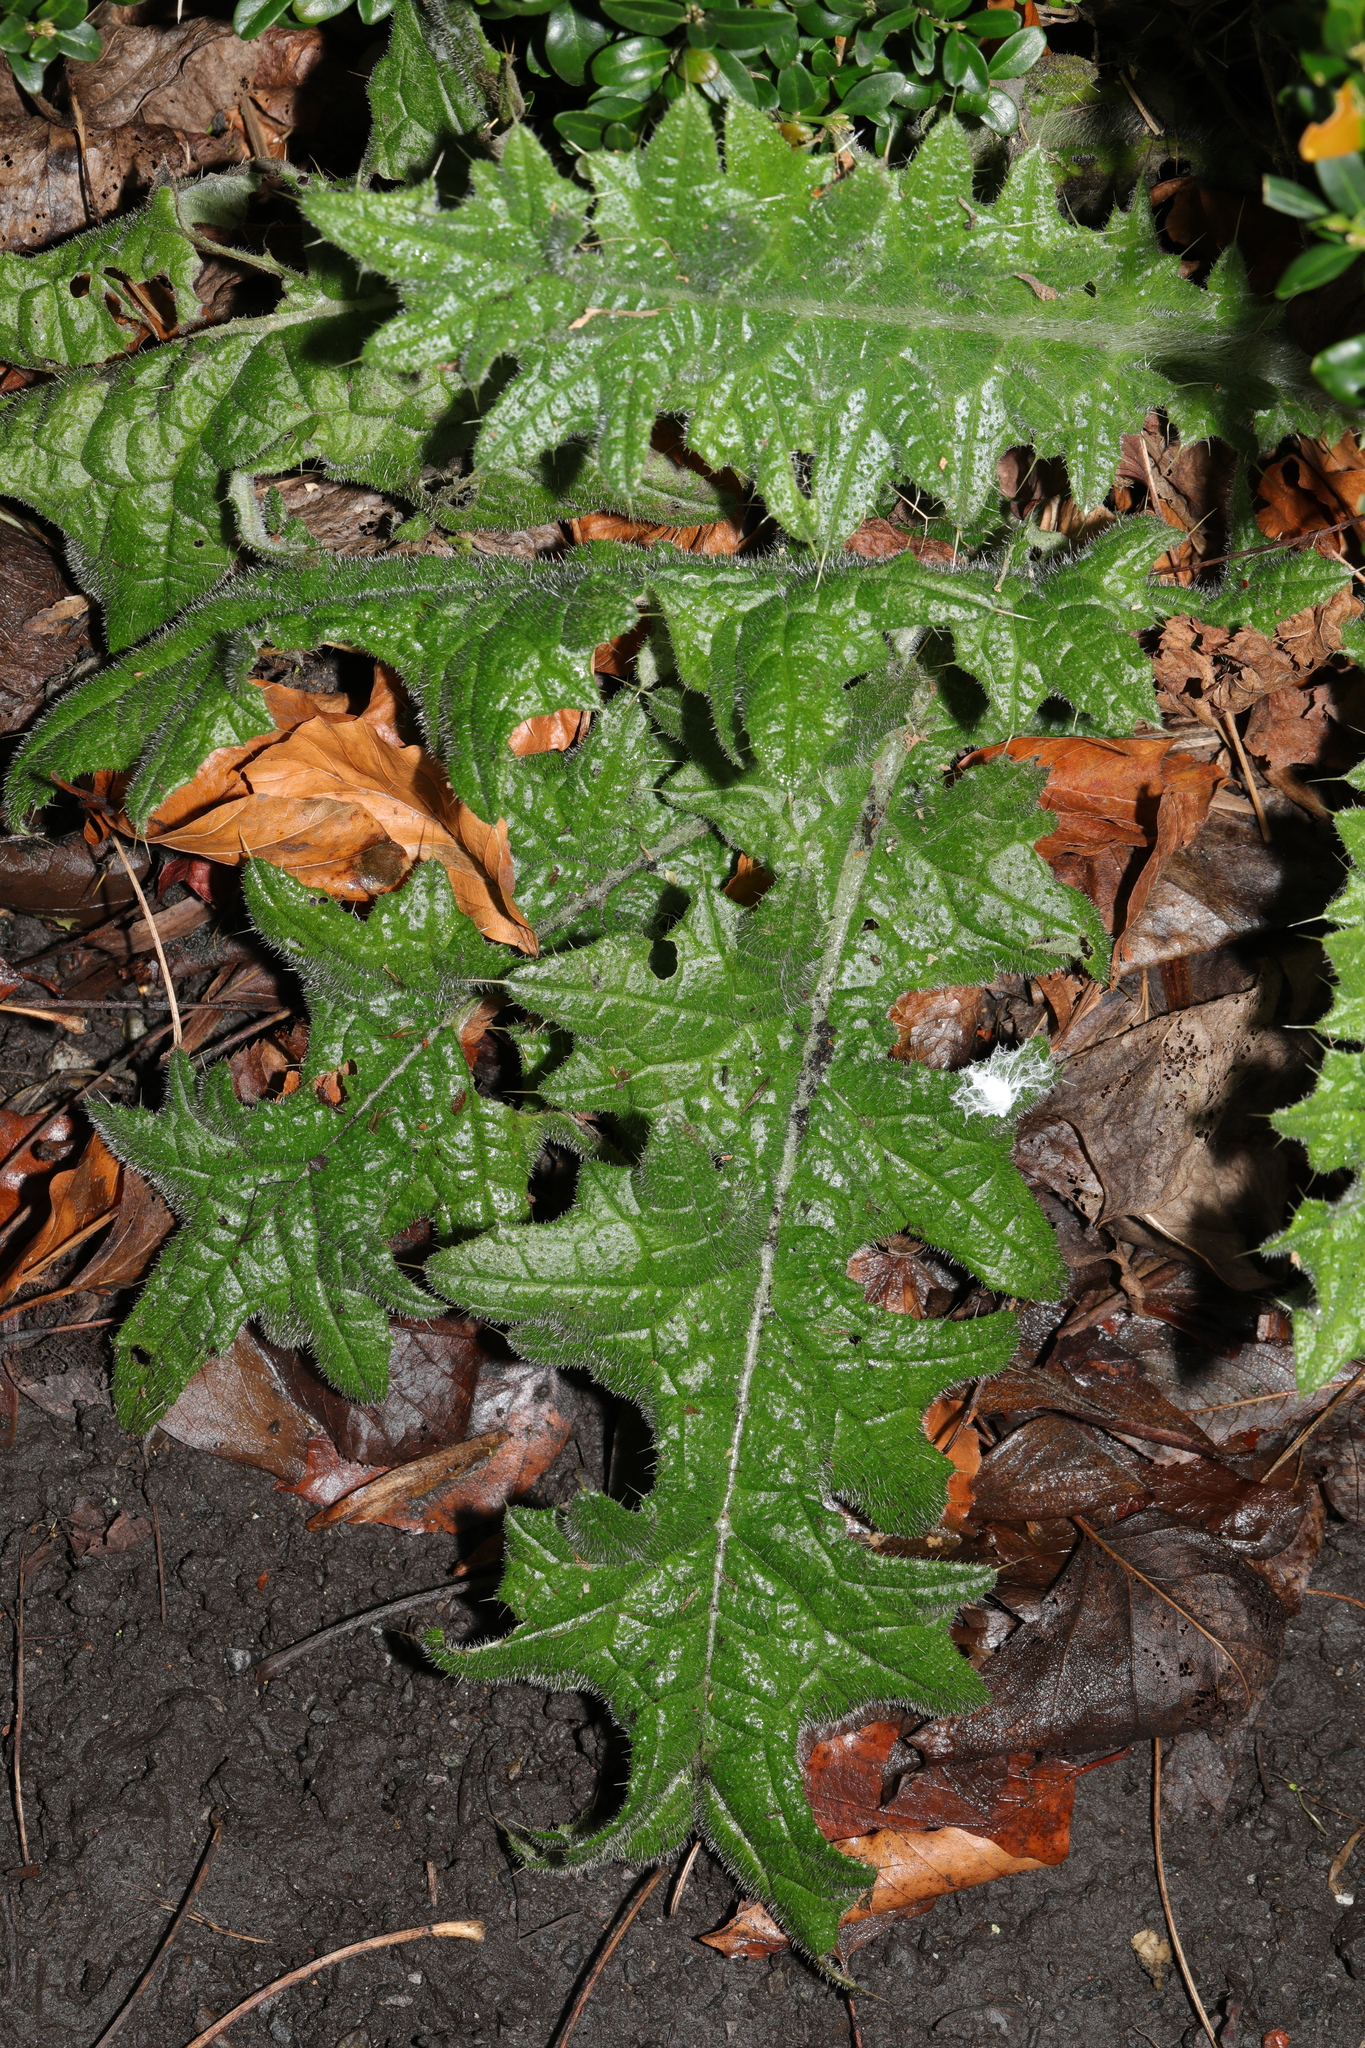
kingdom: Plantae
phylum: Tracheophyta
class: Magnoliopsida
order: Asterales
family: Asteraceae
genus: Cirsium
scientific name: Cirsium vulgare
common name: Bull thistle
